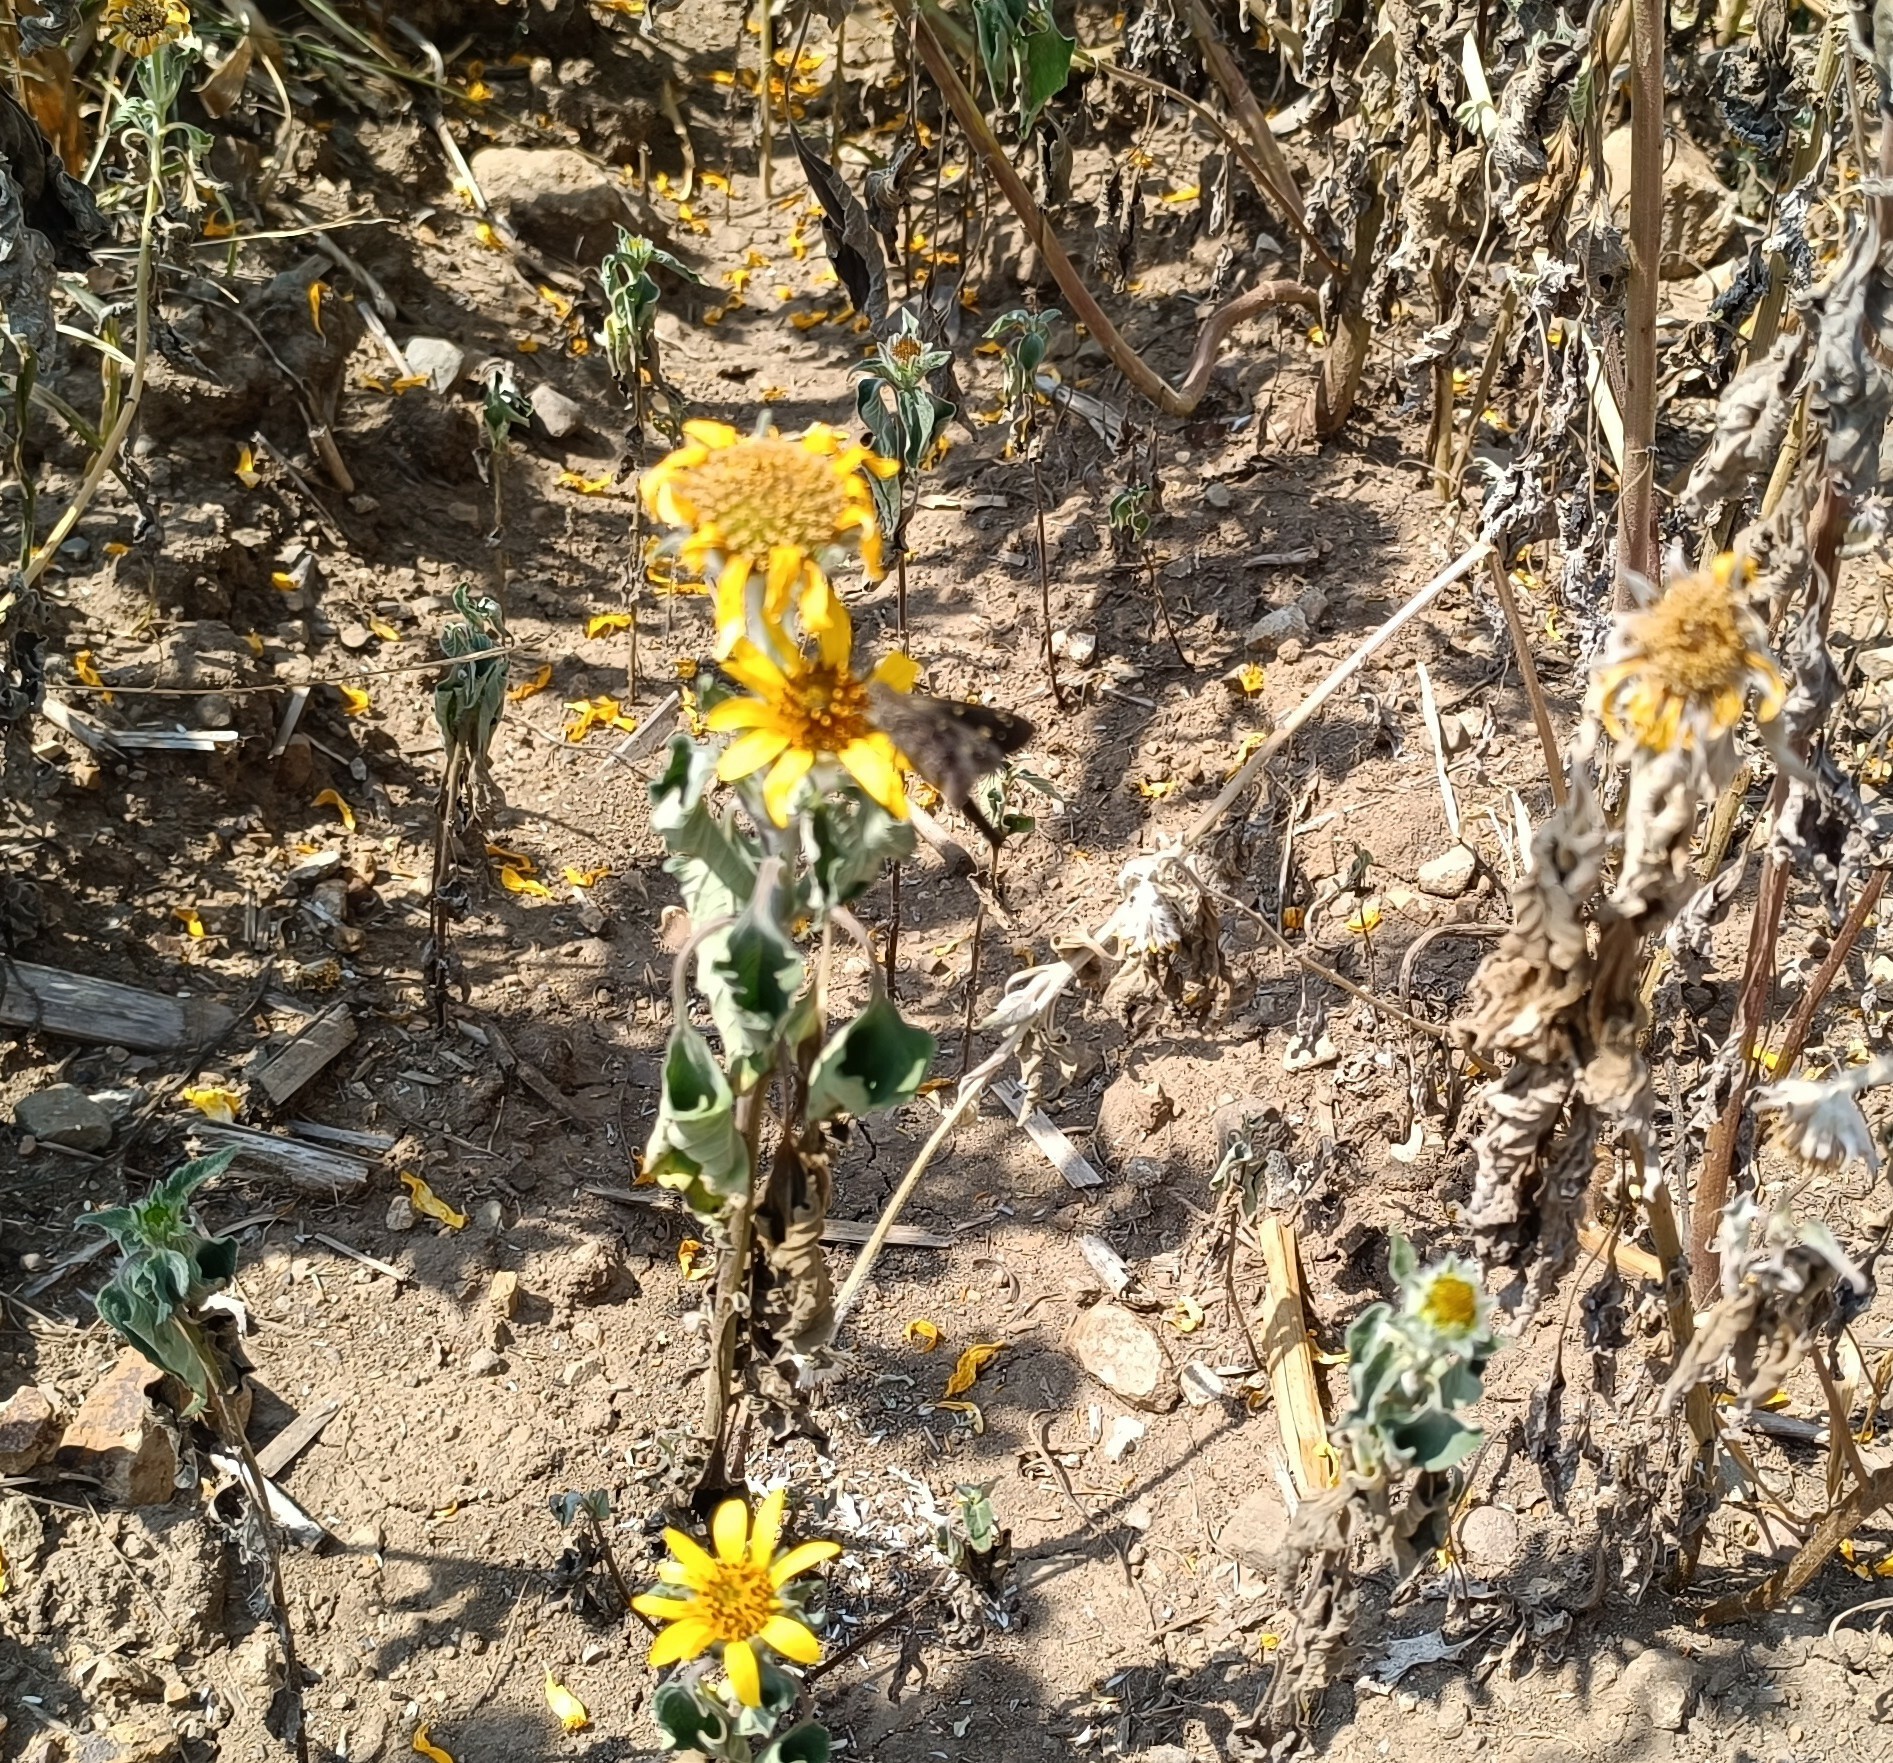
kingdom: Plantae
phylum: Tracheophyta
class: Magnoliopsida
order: Asterales
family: Asteraceae
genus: Tithonia
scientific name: Tithonia tubaeformis
